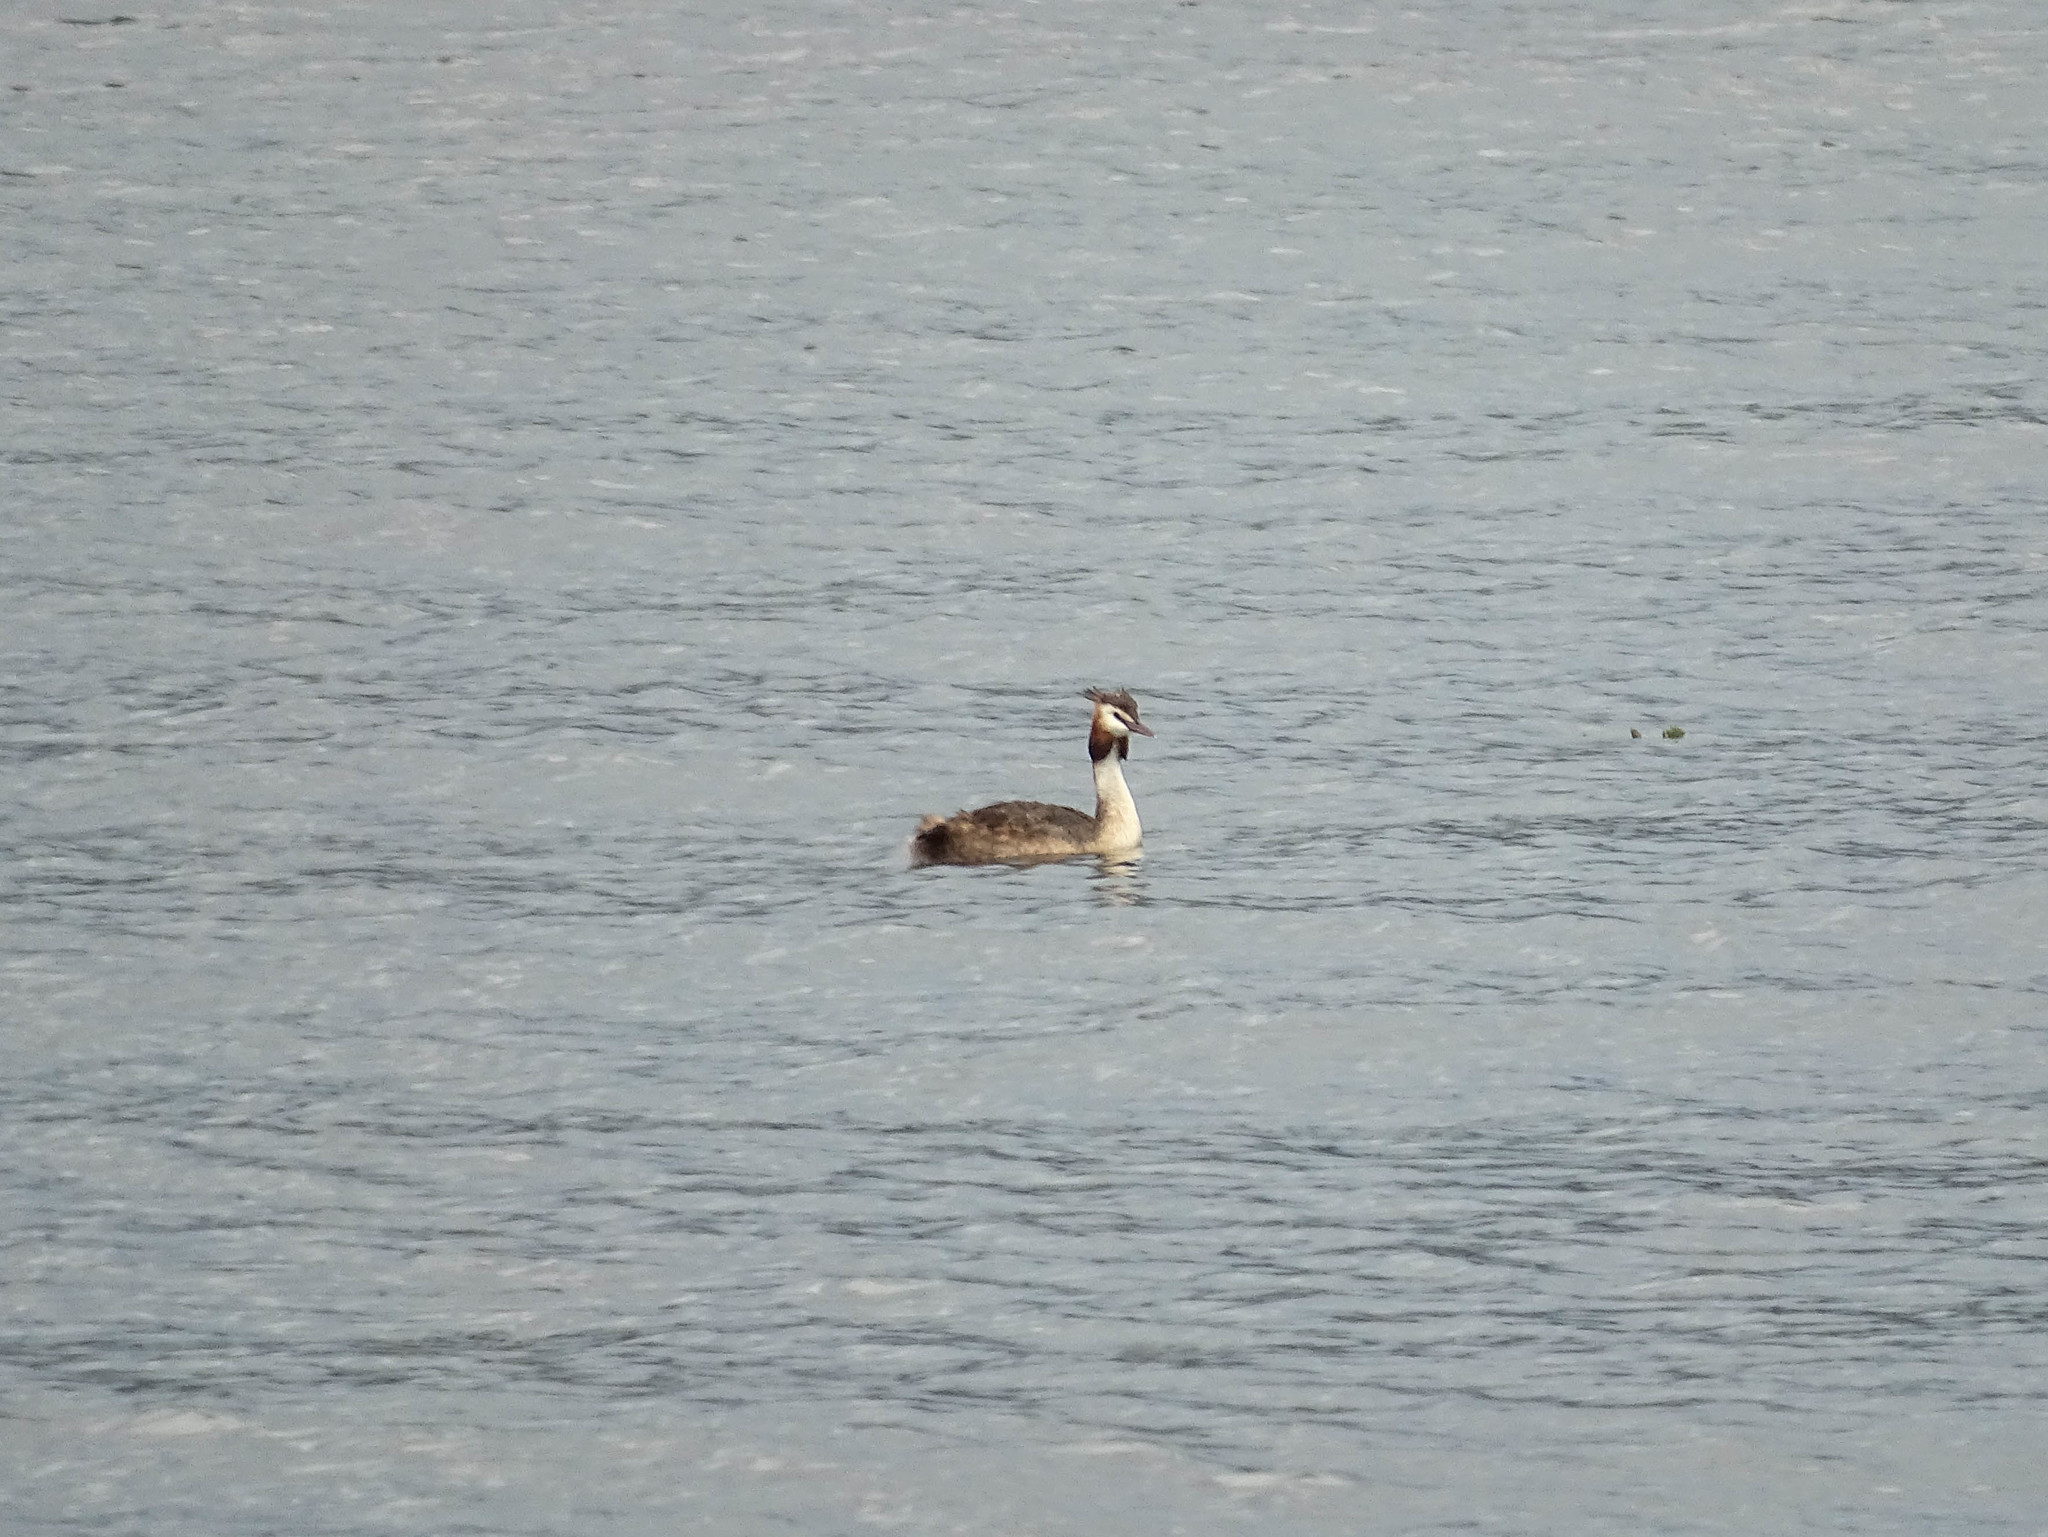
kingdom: Animalia
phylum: Chordata
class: Aves
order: Podicipediformes
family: Podicipedidae
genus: Podiceps
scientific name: Podiceps cristatus
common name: Great crested grebe
